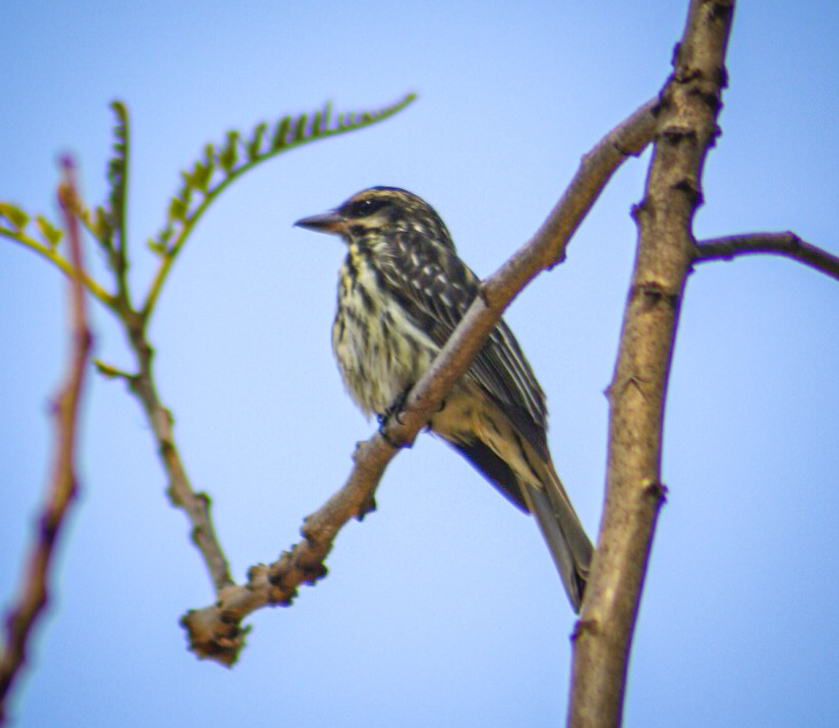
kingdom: Animalia
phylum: Chordata
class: Aves
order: Passeriformes
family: Tyrannidae
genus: Myiodynastes
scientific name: Myiodynastes maculatus
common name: Streaked flycatcher
